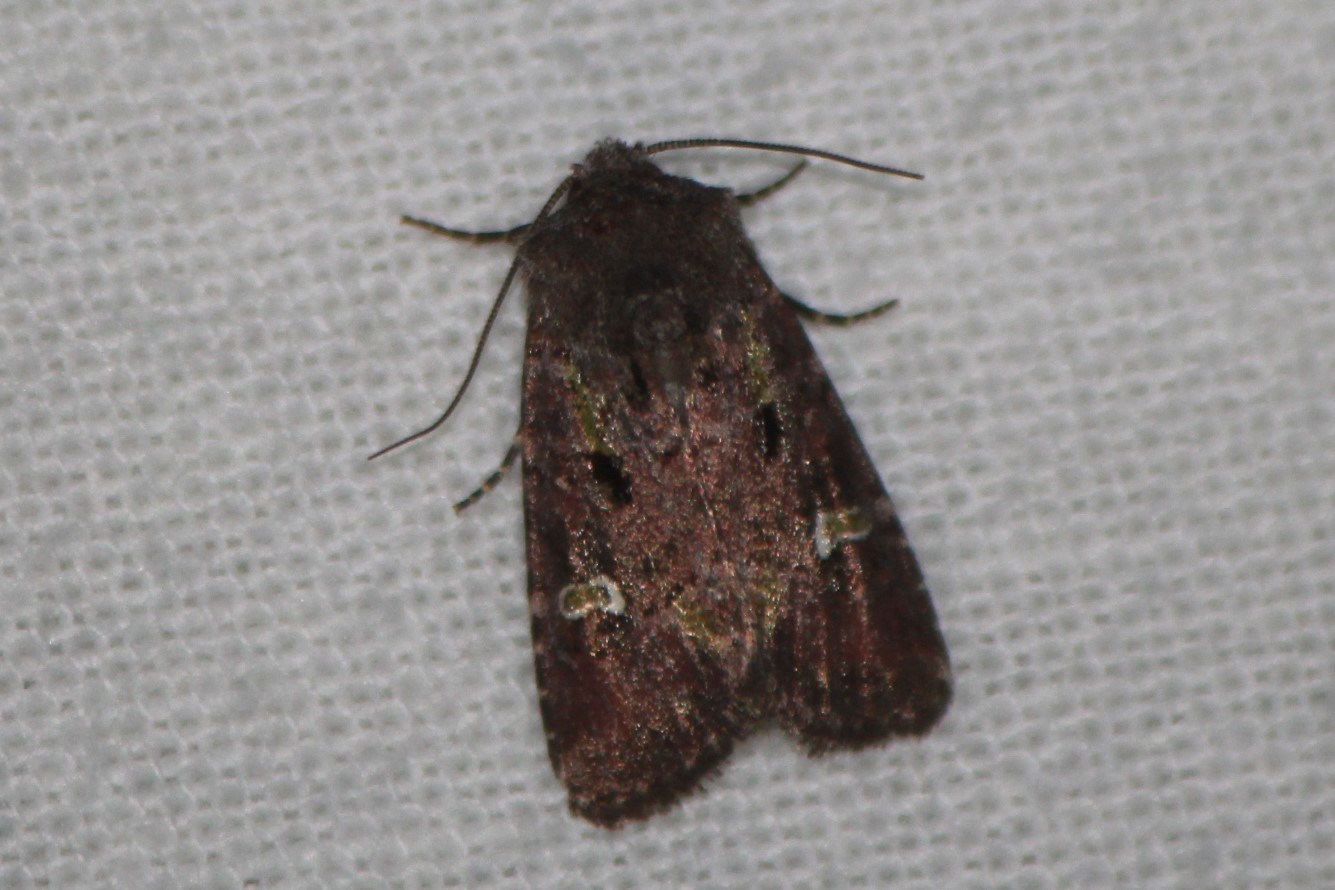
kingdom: Animalia
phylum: Arthropoda
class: Insecta
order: Lepidoptera
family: Noctuidae
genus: Lacinipolia
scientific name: Lacinipolia renigera
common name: Kidney-spotted minor
